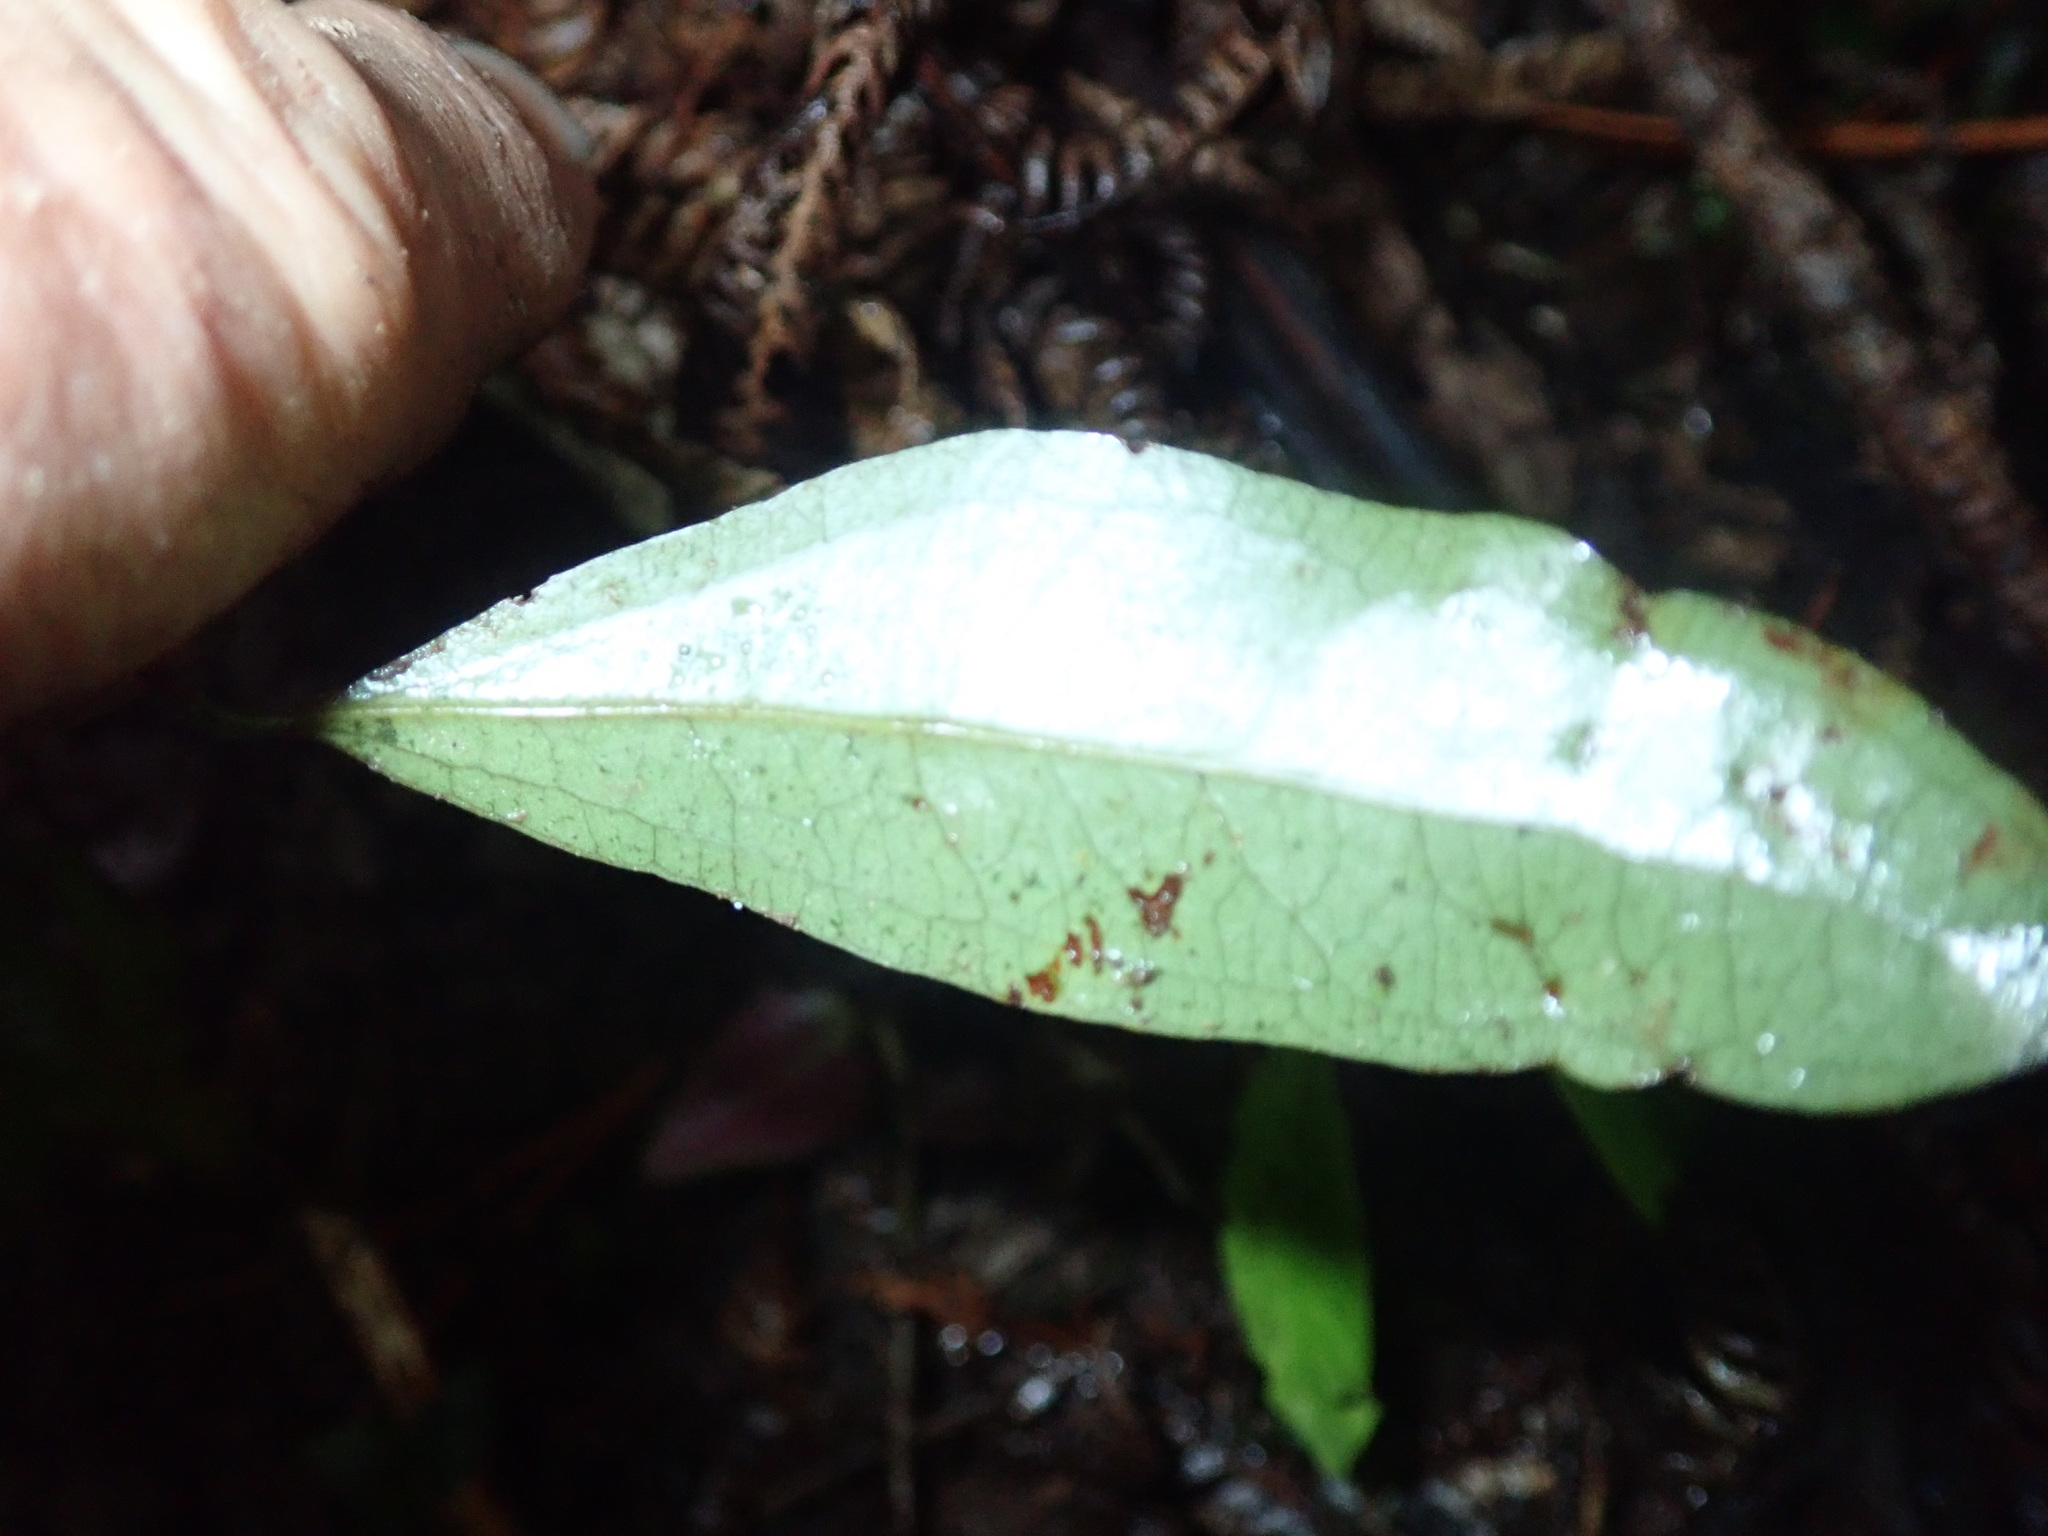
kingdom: Plantae
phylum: Tracheophyta
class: Liliopsida
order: Liliales
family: Ripogonaceae
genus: Ripogonum
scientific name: Ripogonum scandens
